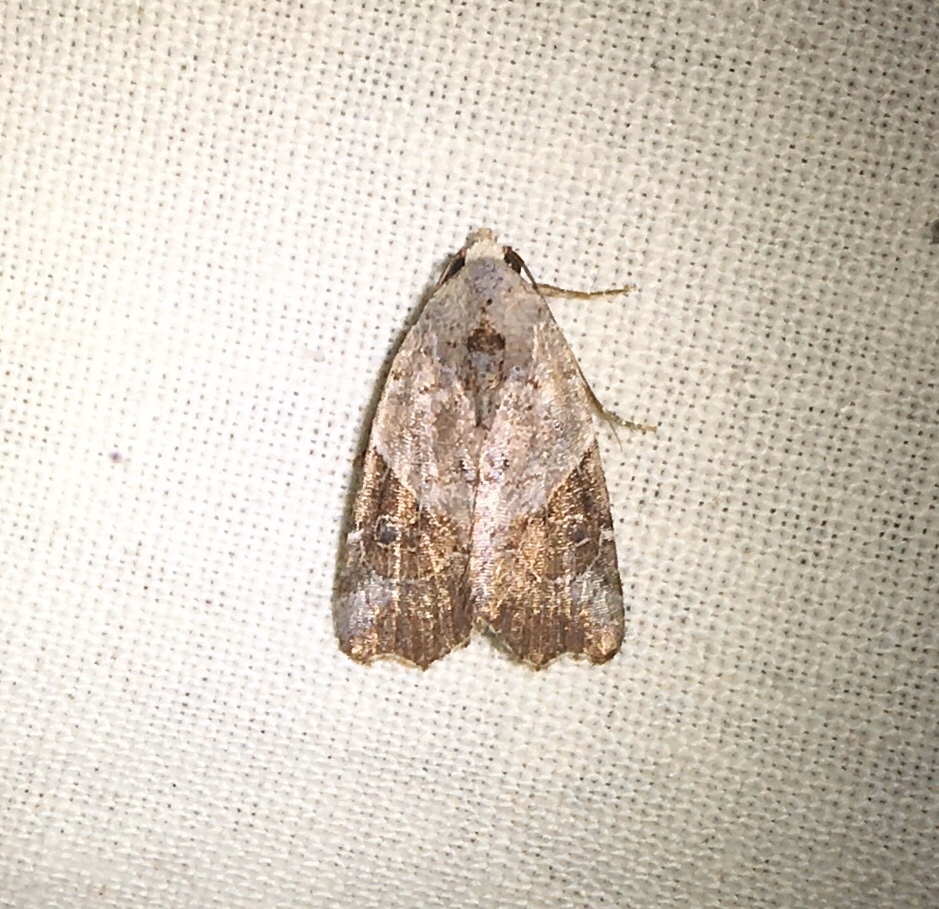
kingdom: Animalia
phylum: Arthropoda
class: Insecta
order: Lepidoptera
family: Noctuidae
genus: Gonodes
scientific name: Gonodes liquida
